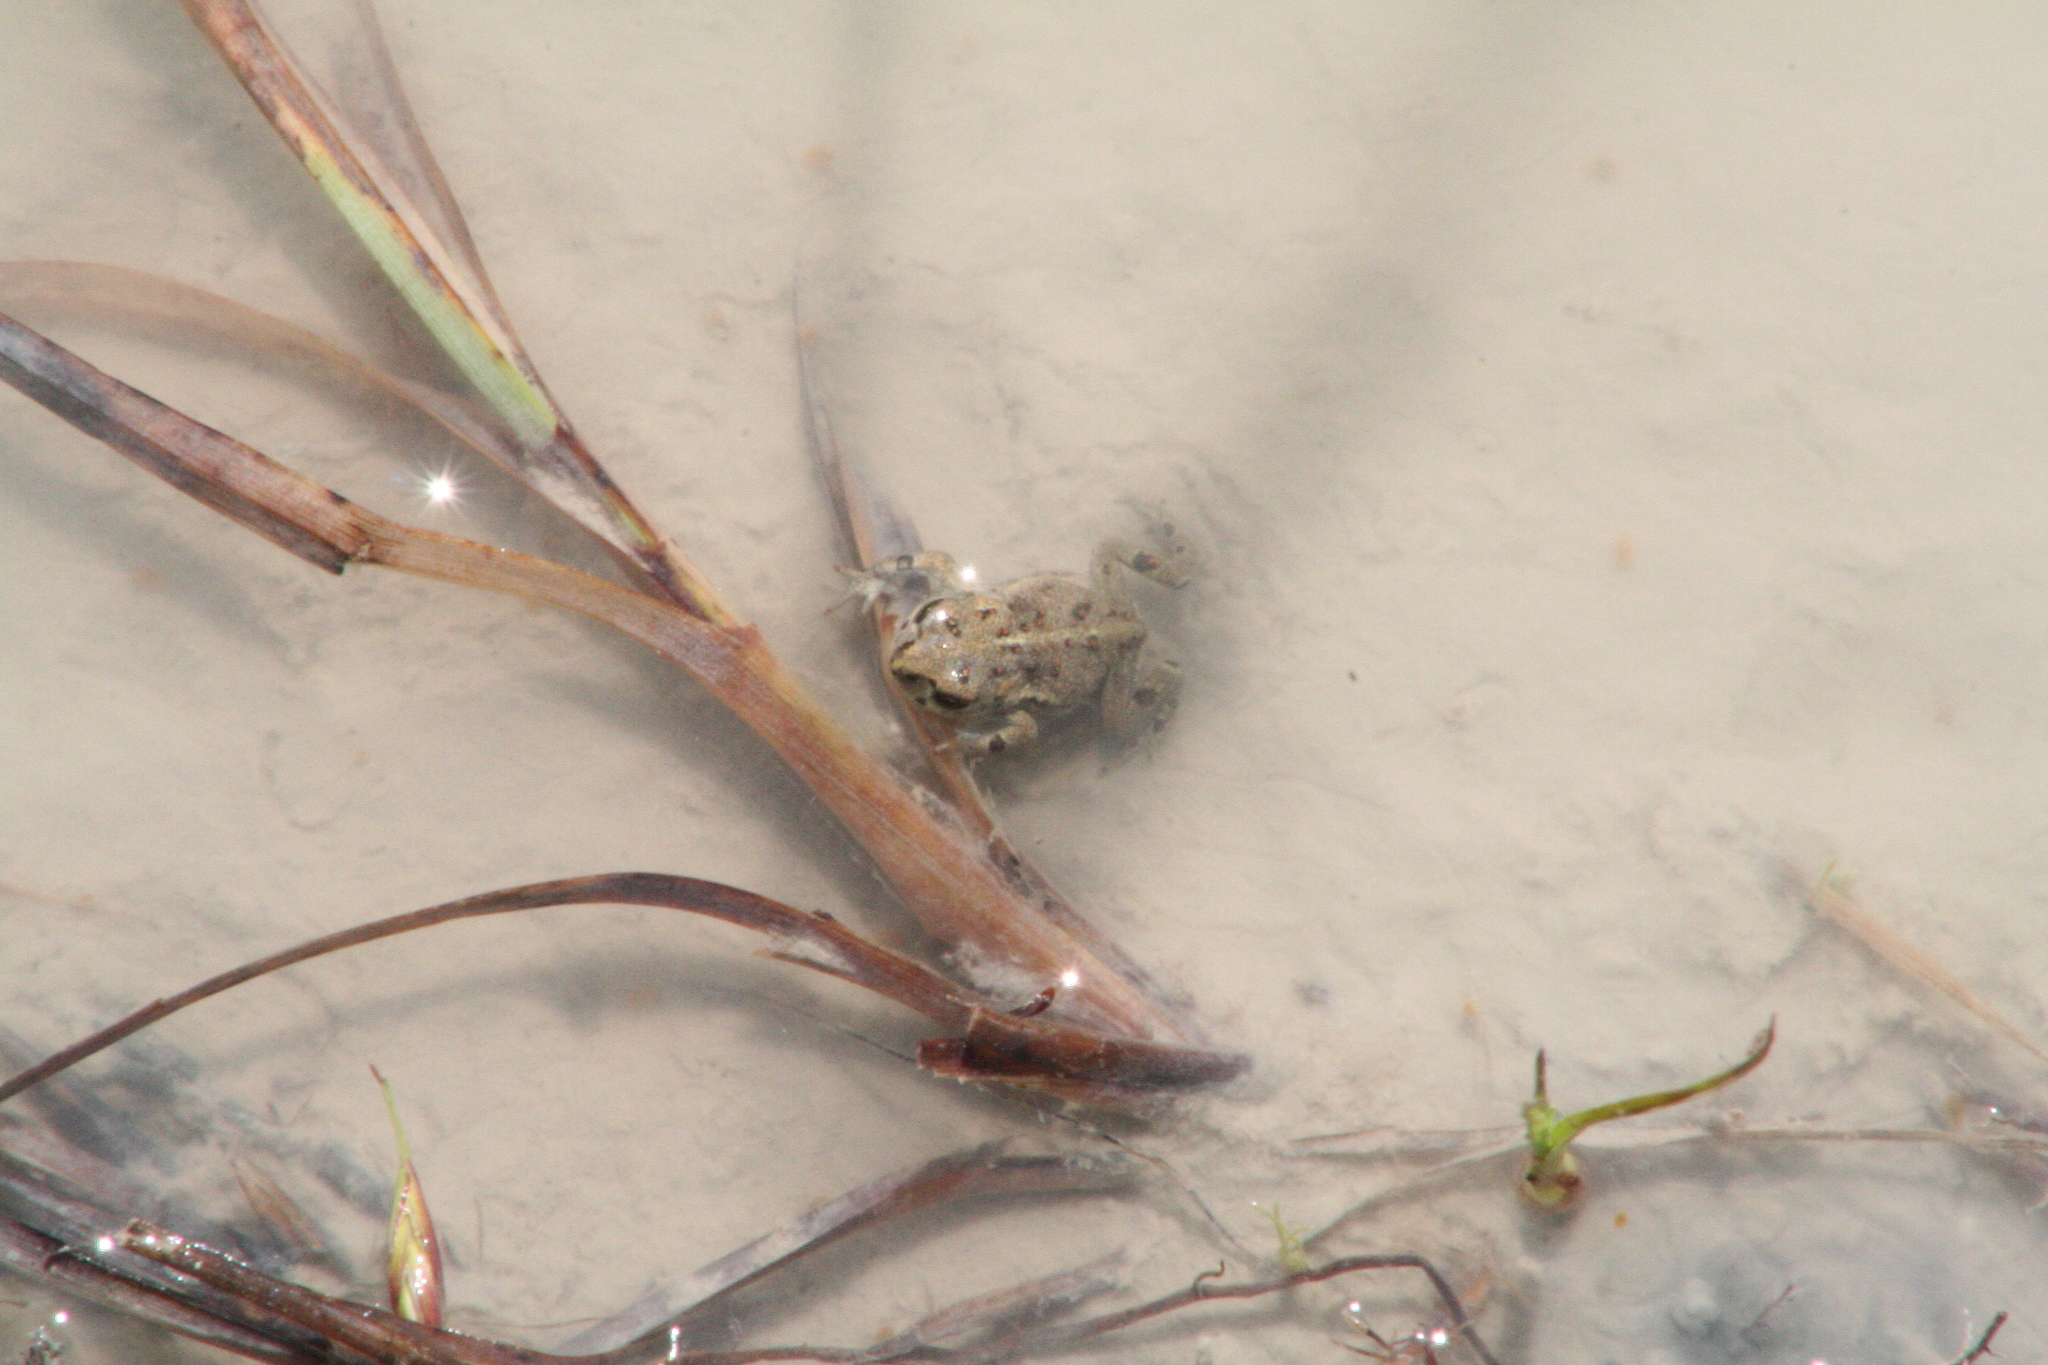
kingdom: Animalia
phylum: Chordata
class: Amphibia
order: Anura
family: Bufonidae
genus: Epidalea
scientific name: Epidalea calamita
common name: Natterjack toad
